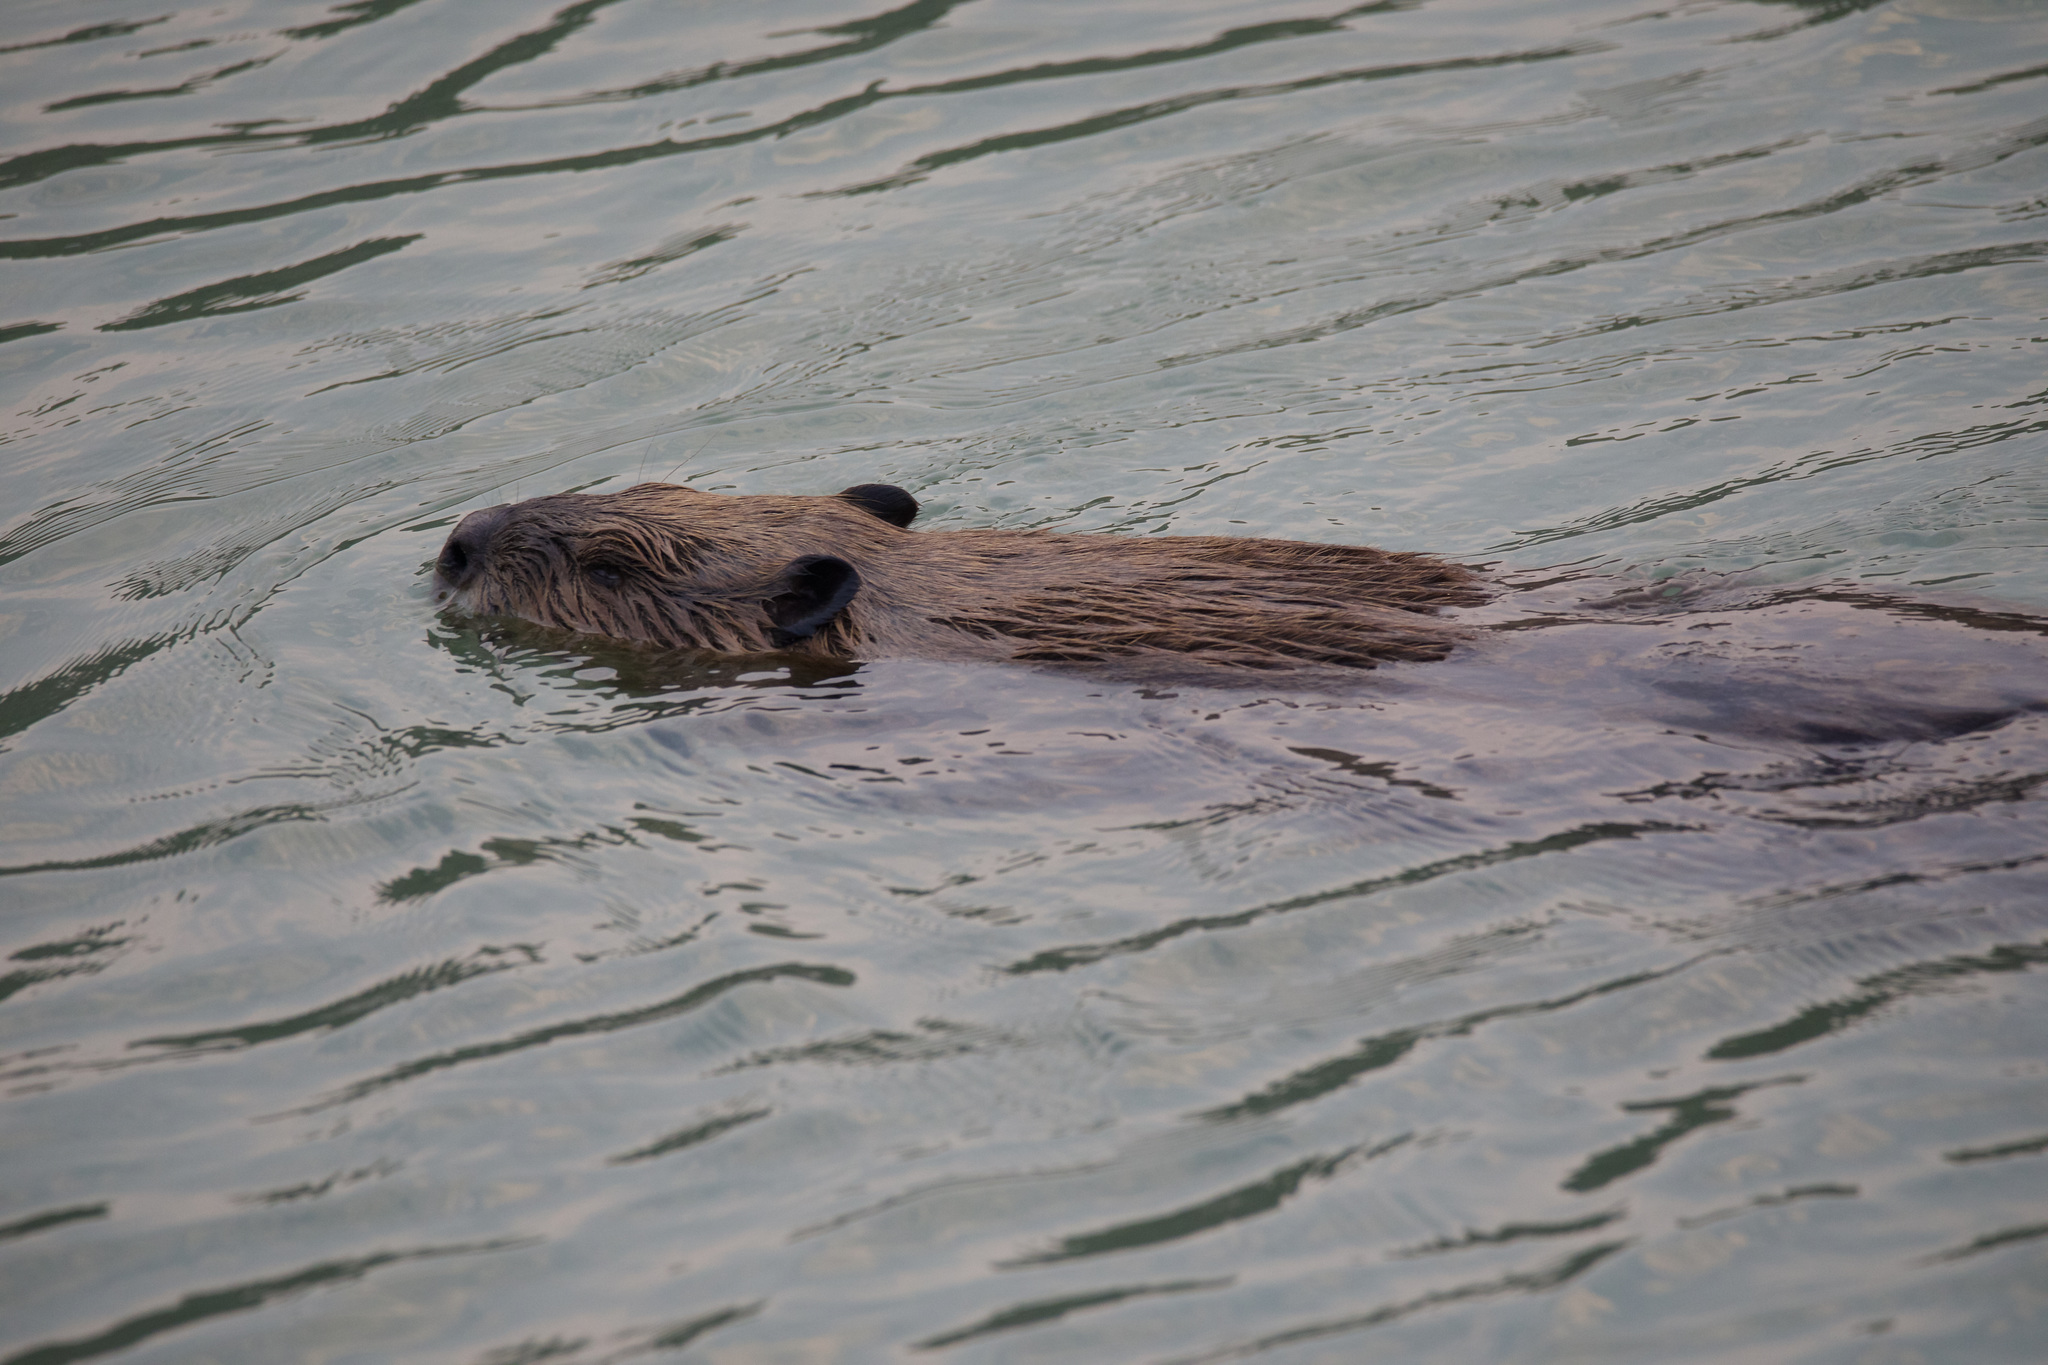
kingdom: Animalia
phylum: Chordata
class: Mammalia
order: Rodentia
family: Castoridae
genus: Castor
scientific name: Castor canadensis
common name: American beaver
